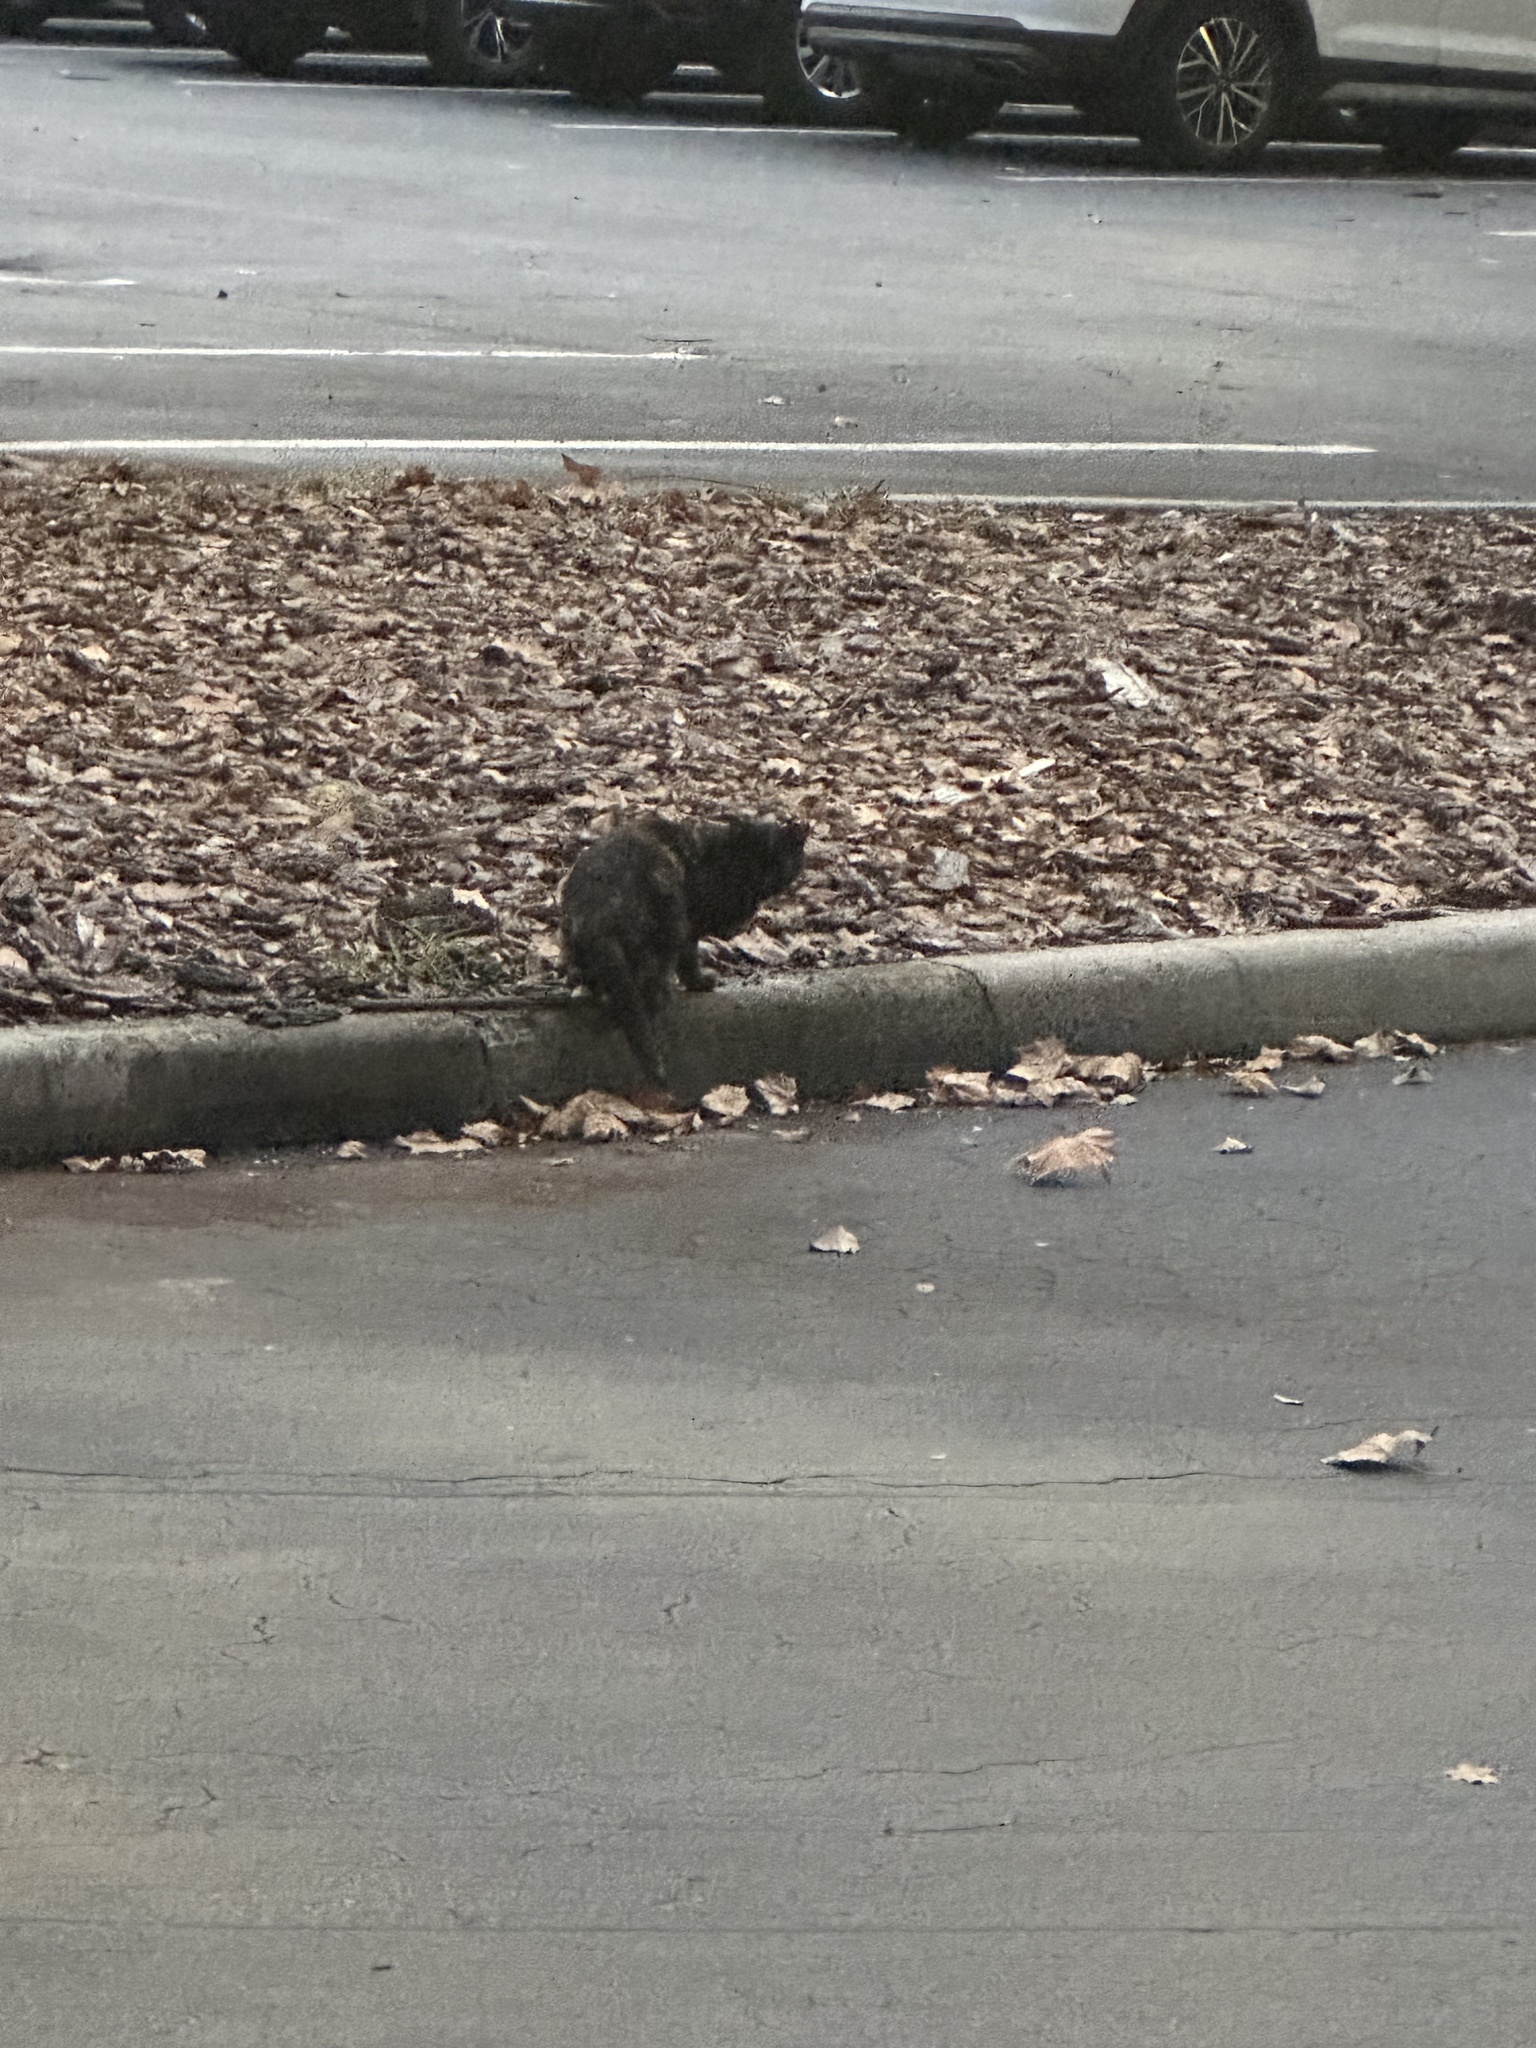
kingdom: Animalia
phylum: Chordata
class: Mammalia
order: Carnivora
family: Felidae
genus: Felis
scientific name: Felis catus
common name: Domestic cat
